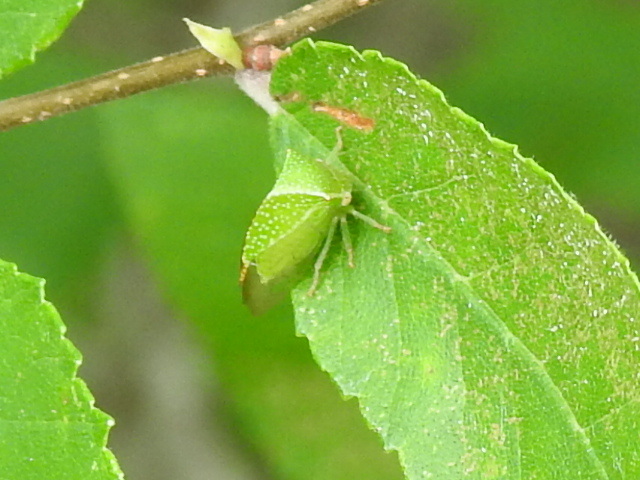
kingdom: Animalia
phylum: Arthropoda
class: Insecta
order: Hemiptera
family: Membracidae
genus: Hadrophallus
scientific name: Hadrophallus varians
